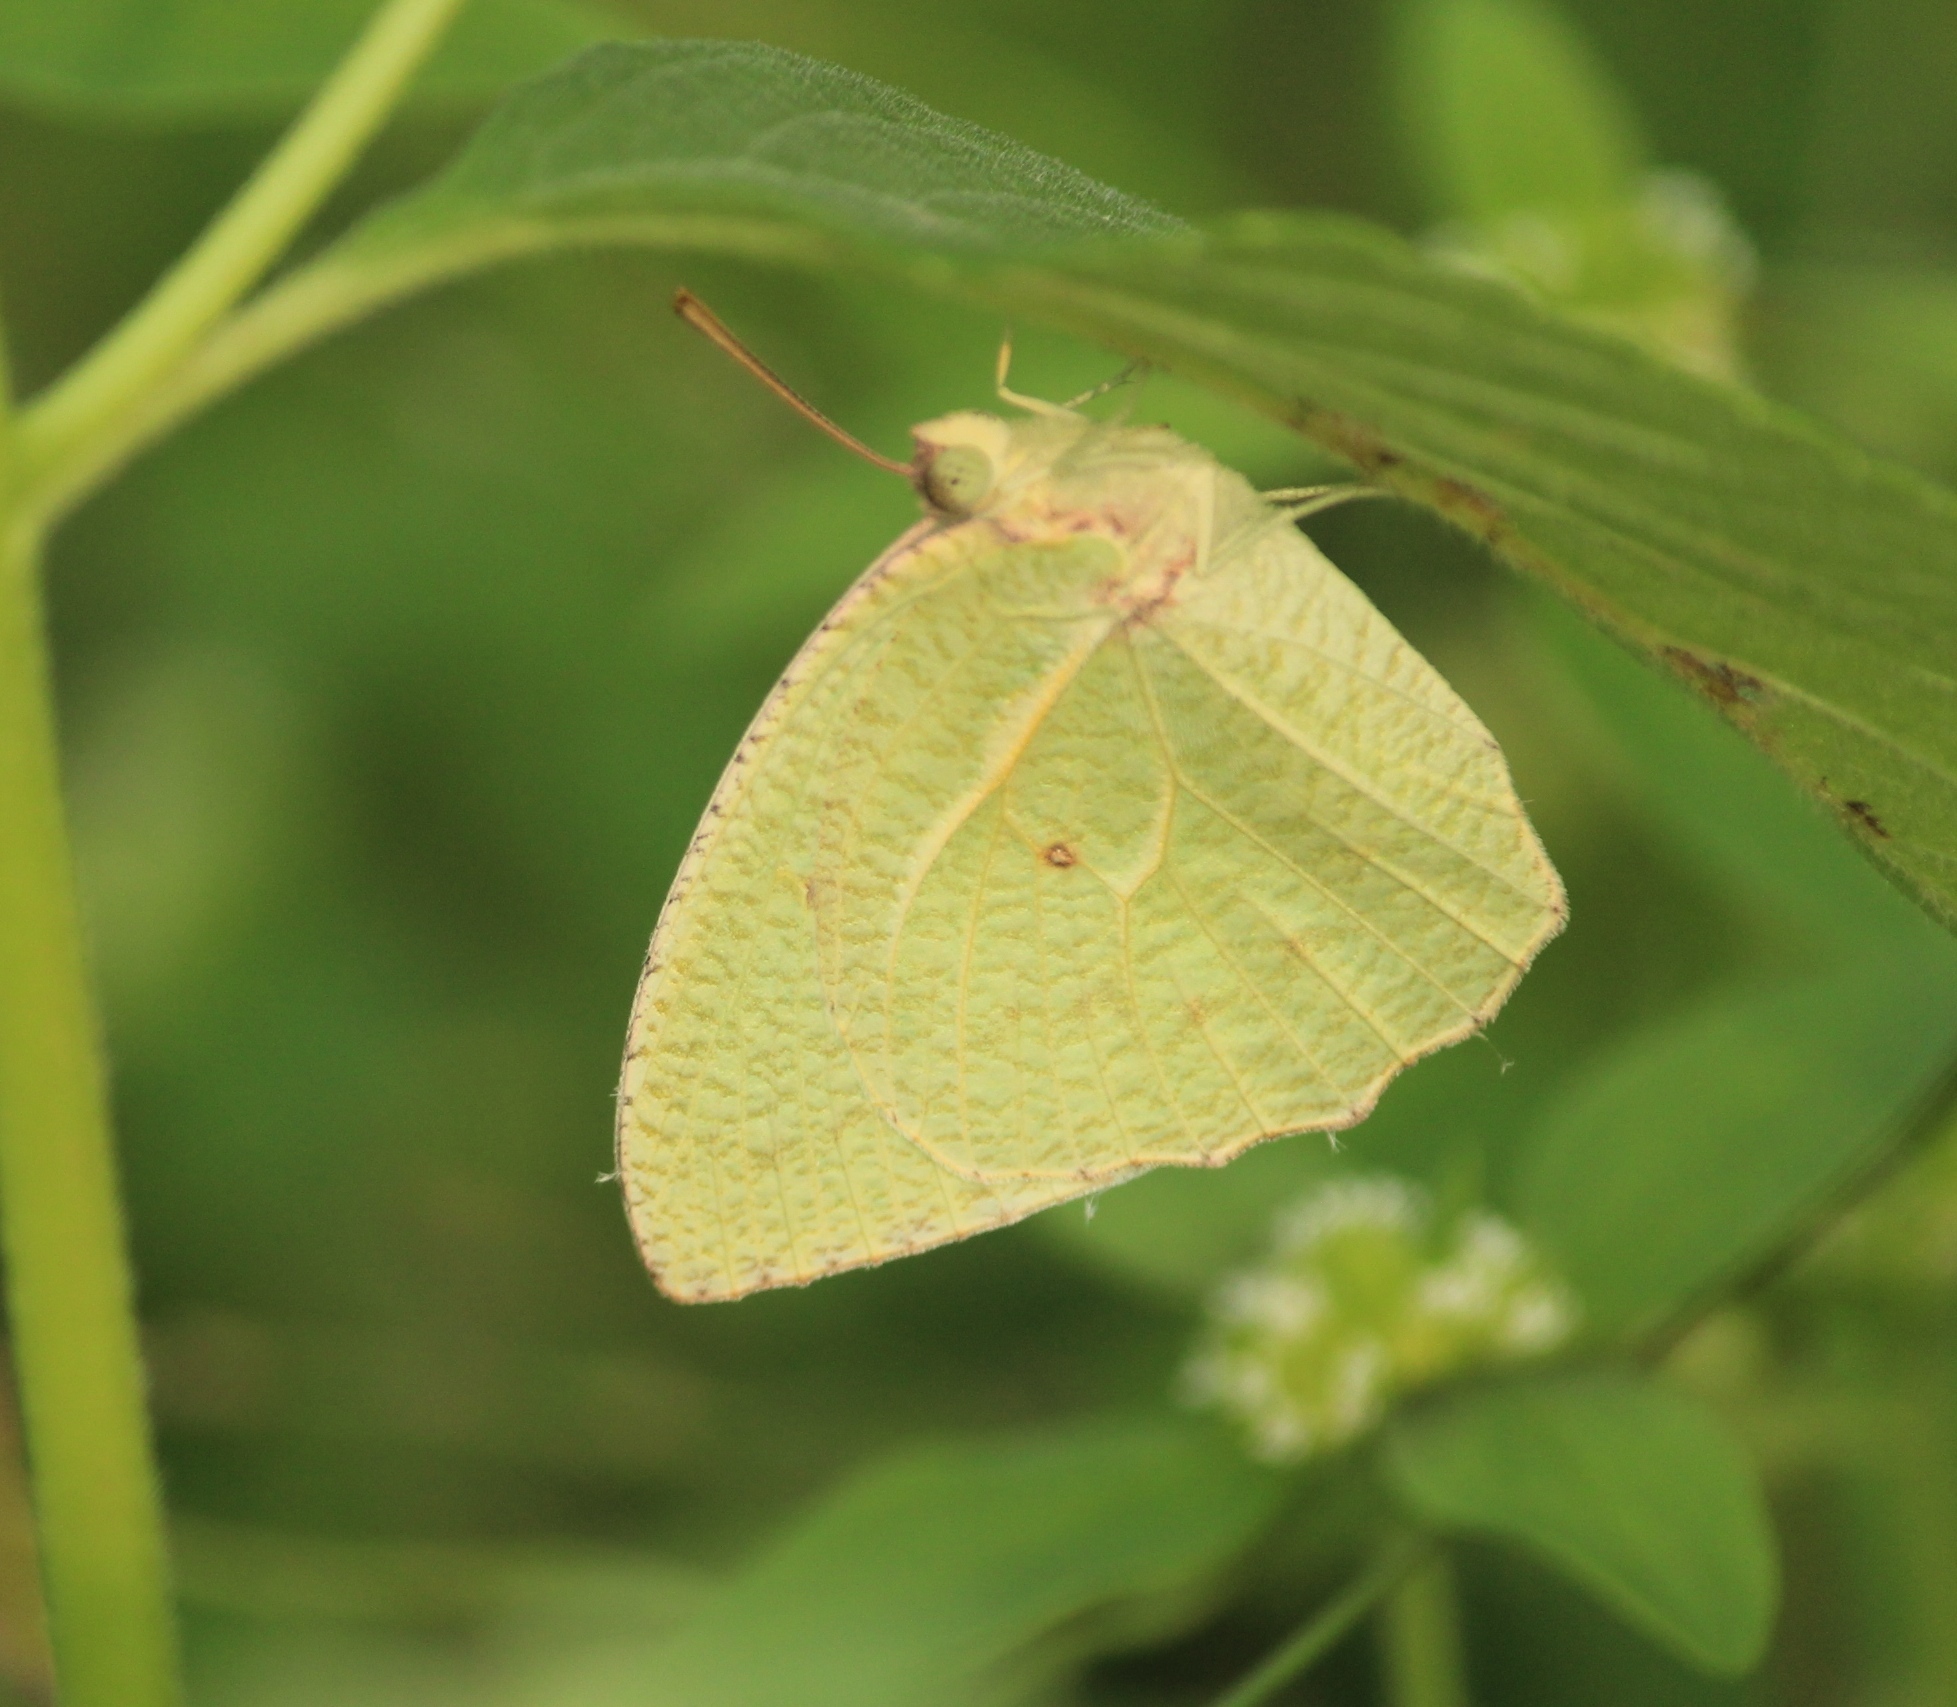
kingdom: Animalia
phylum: Arthropoda
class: Insecta
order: Lepidoptera
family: Pieridae
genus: Catopsilia
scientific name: Catopsilia pyranthe
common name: Mottled emigrant
